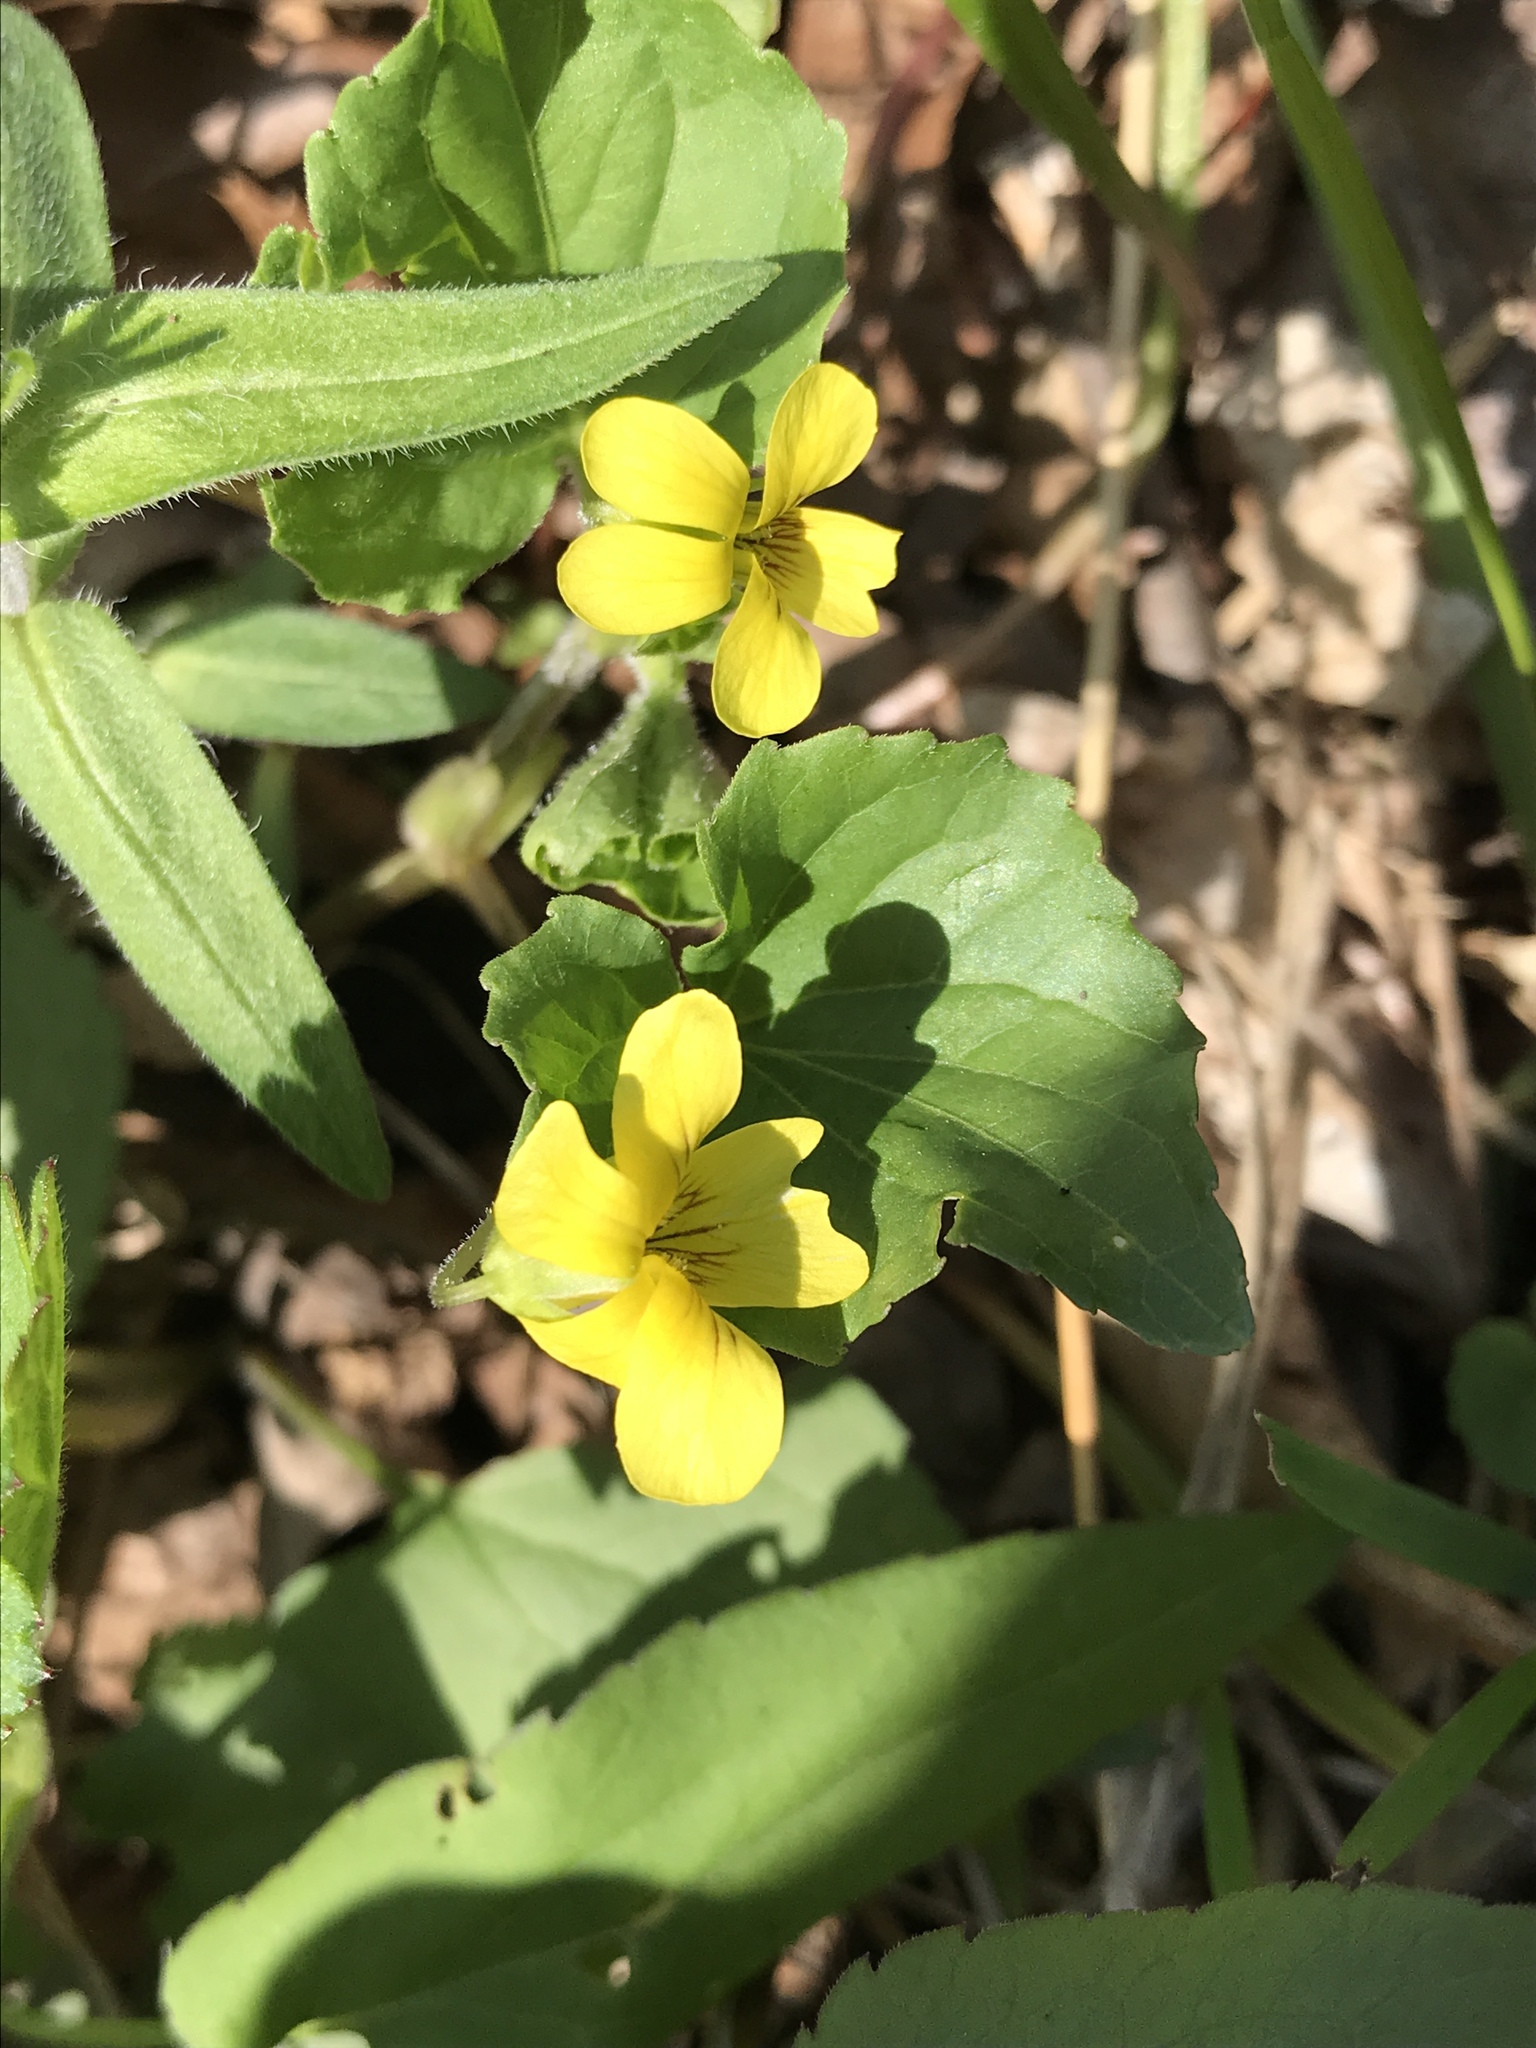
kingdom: Plantae
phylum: Tracheophyta
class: Magnoliopsida
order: Malpighiales
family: Violaceae
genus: Viola
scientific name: Viola eriocarpa
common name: Smooth yellow violet
